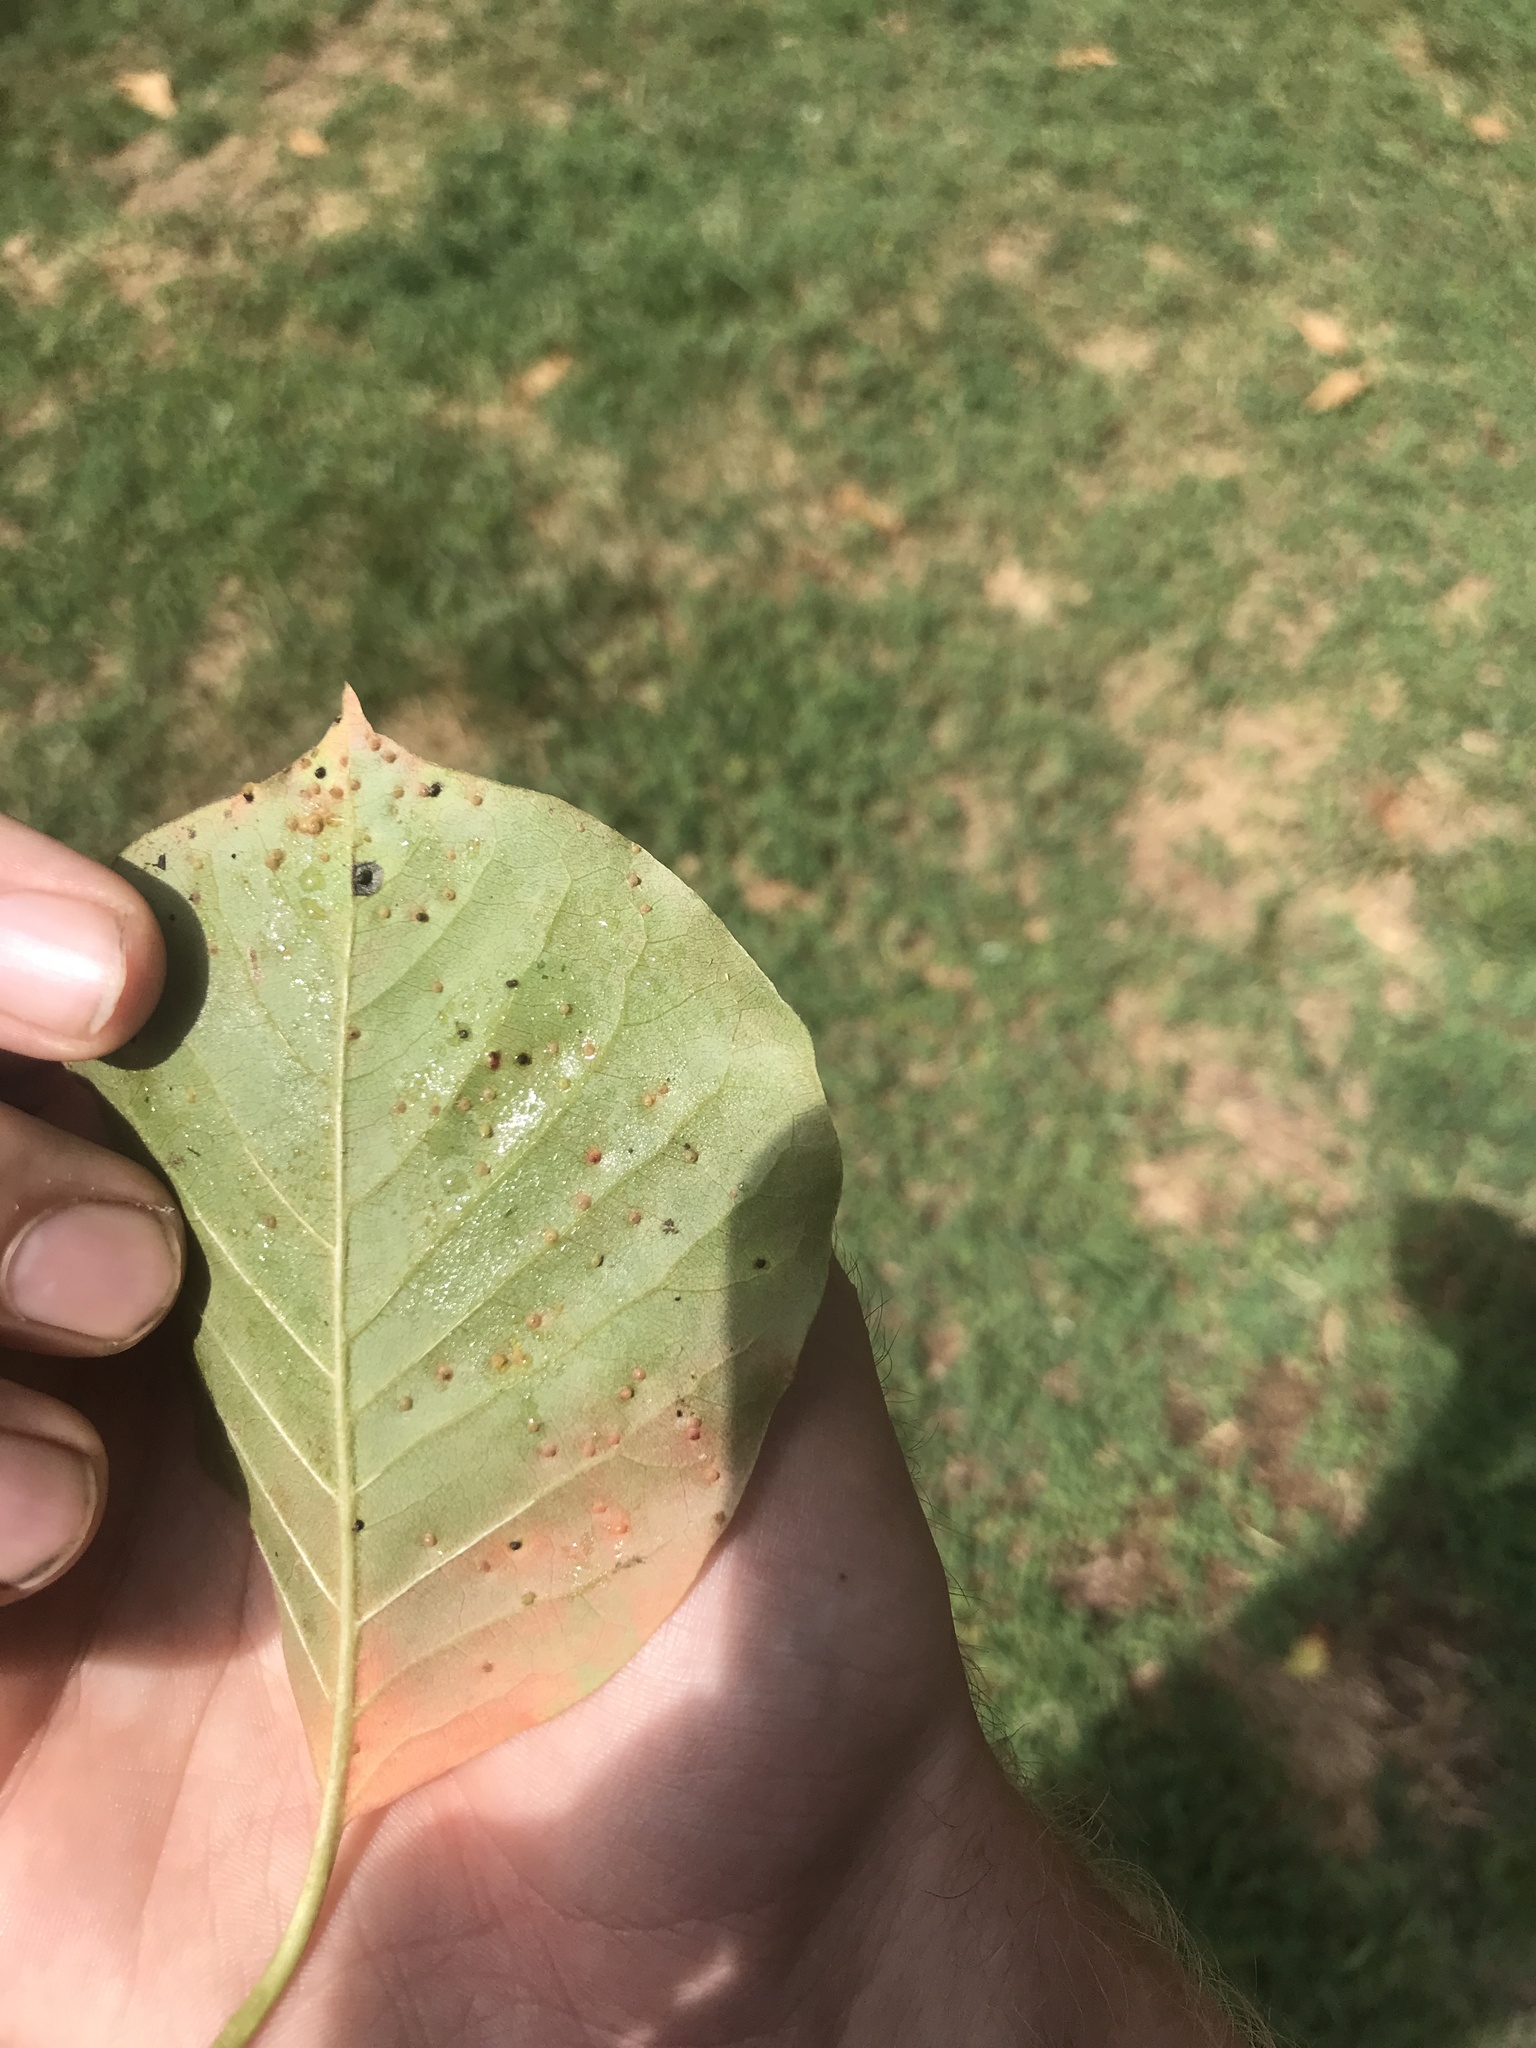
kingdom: Animalia
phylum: Arthropoda
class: Arachnida
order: Trombidiformes
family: Eriophyidae
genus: Aceria
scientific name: Aceria
